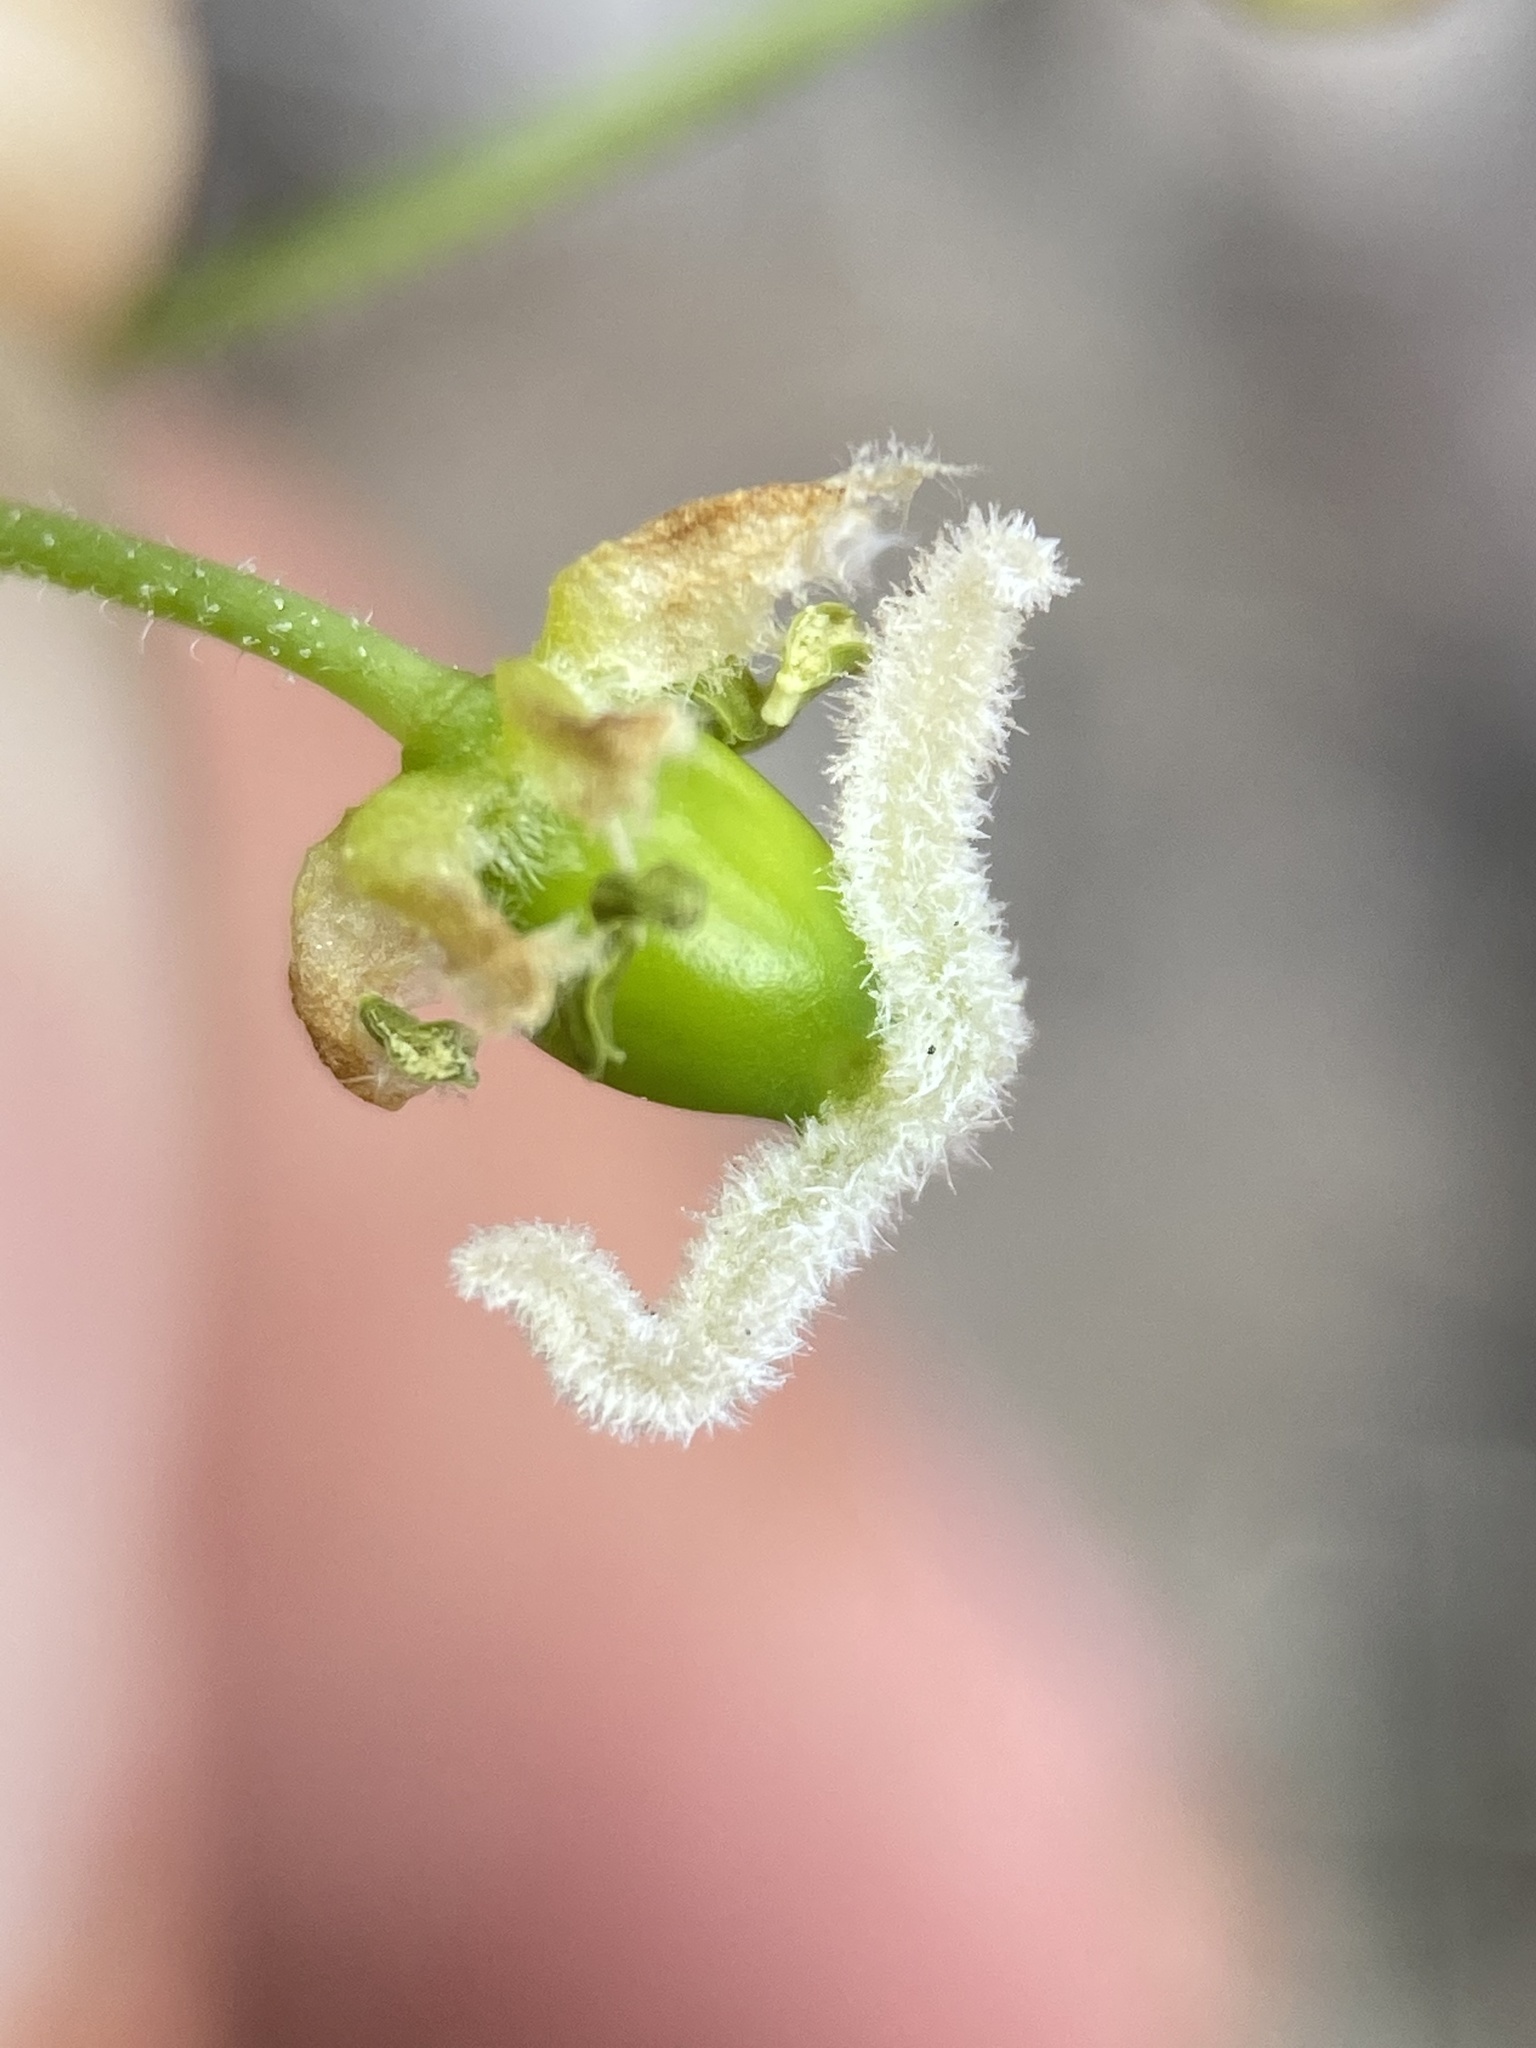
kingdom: Plantae
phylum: Tracheophyta
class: Magnoliopsida
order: Rosales
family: Cannabaceae
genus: Celtis
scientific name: Celtis reticulata
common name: Netleaf hackberry
